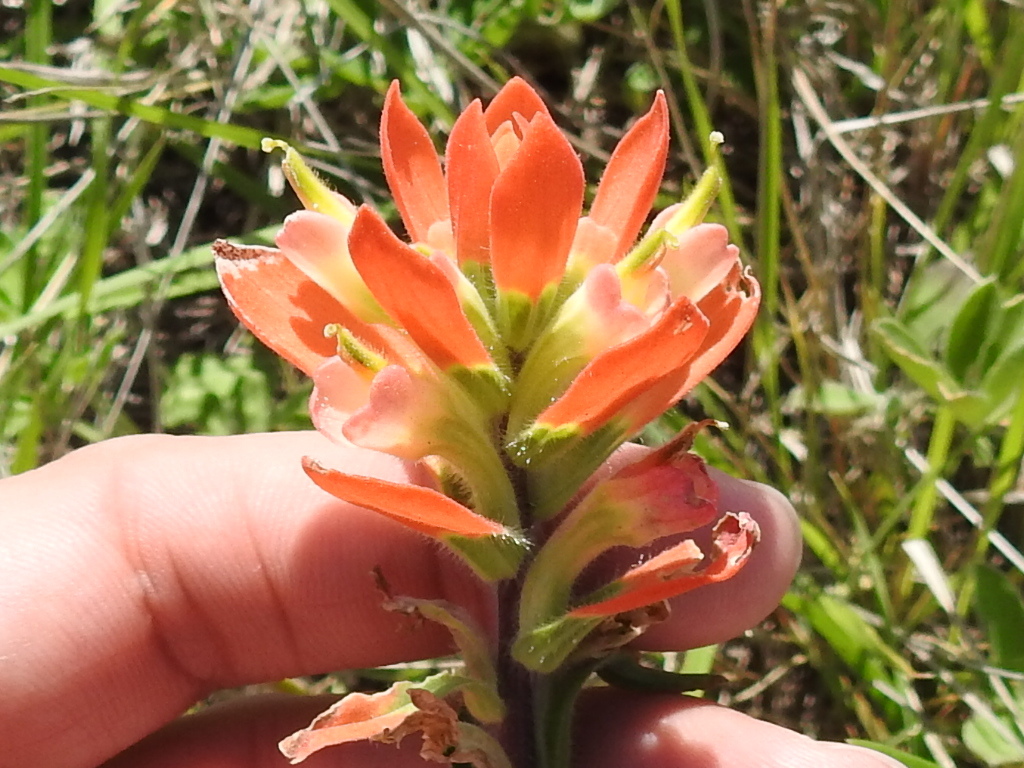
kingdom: Plantae
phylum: Tracheophyta
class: Magnoliopsida
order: Lamiales
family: Orobanchaceae
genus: Castilleja
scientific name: Castilleja indivisa
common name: Texas paintbrush
